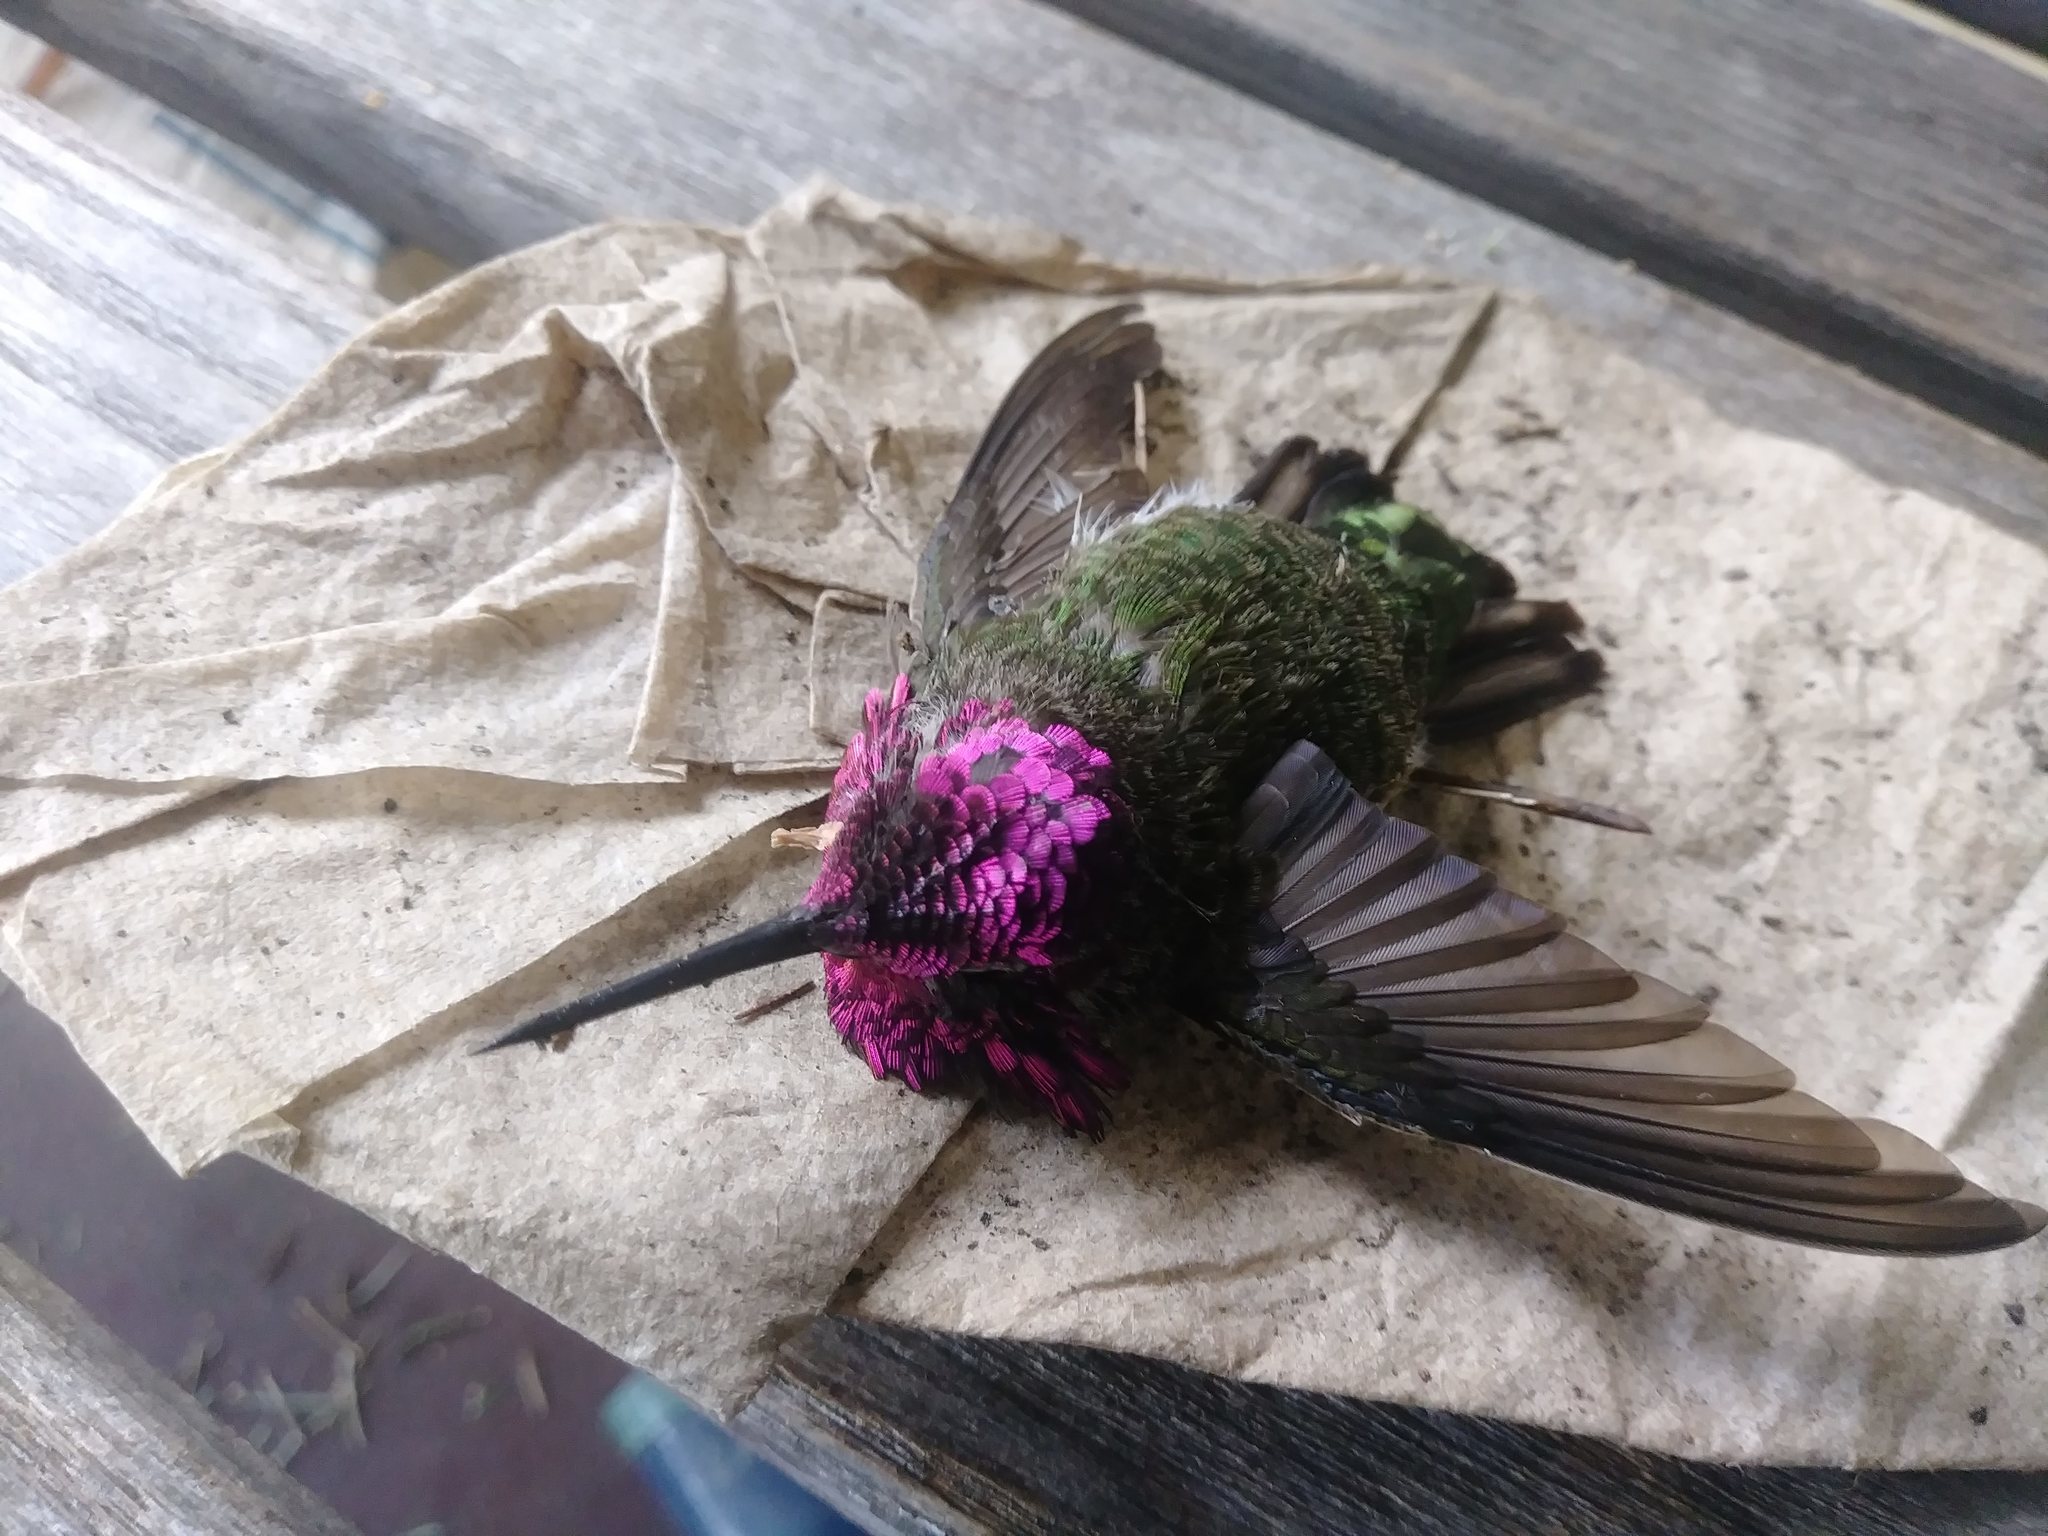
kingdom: Animalia
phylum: Chordata
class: Aves
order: Apodiformes
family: Trochilidae
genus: Calypte
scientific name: Calypte anna
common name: Anna's hummingbird
